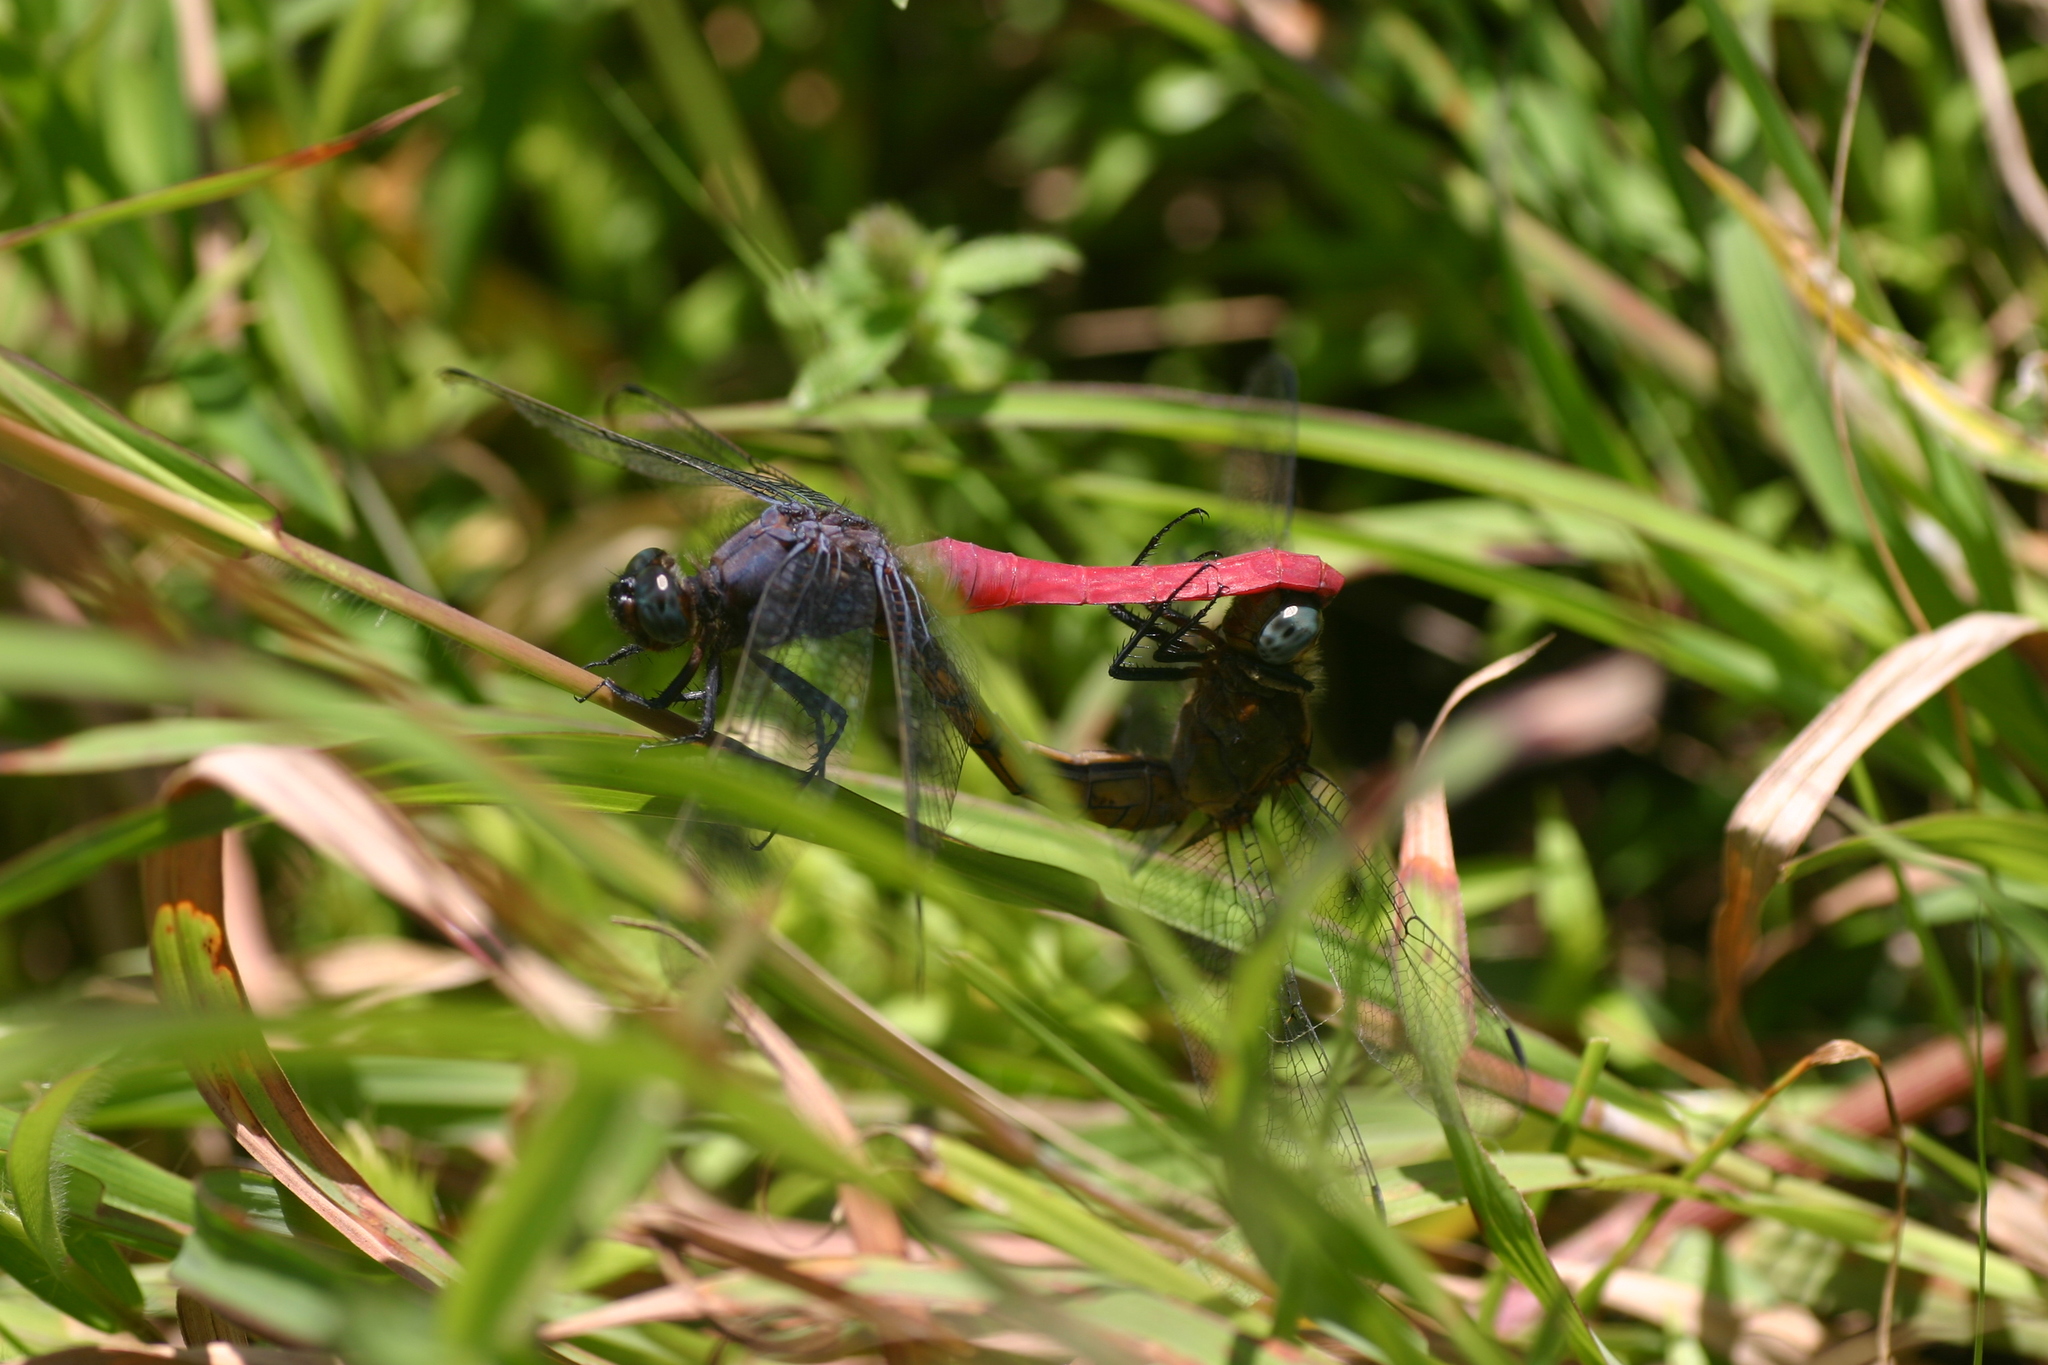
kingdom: Animalia
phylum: Arthropoda
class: Insecta
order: Odonata
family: Libellulidae
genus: Orthetrum
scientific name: Orthetrum pruinosum
